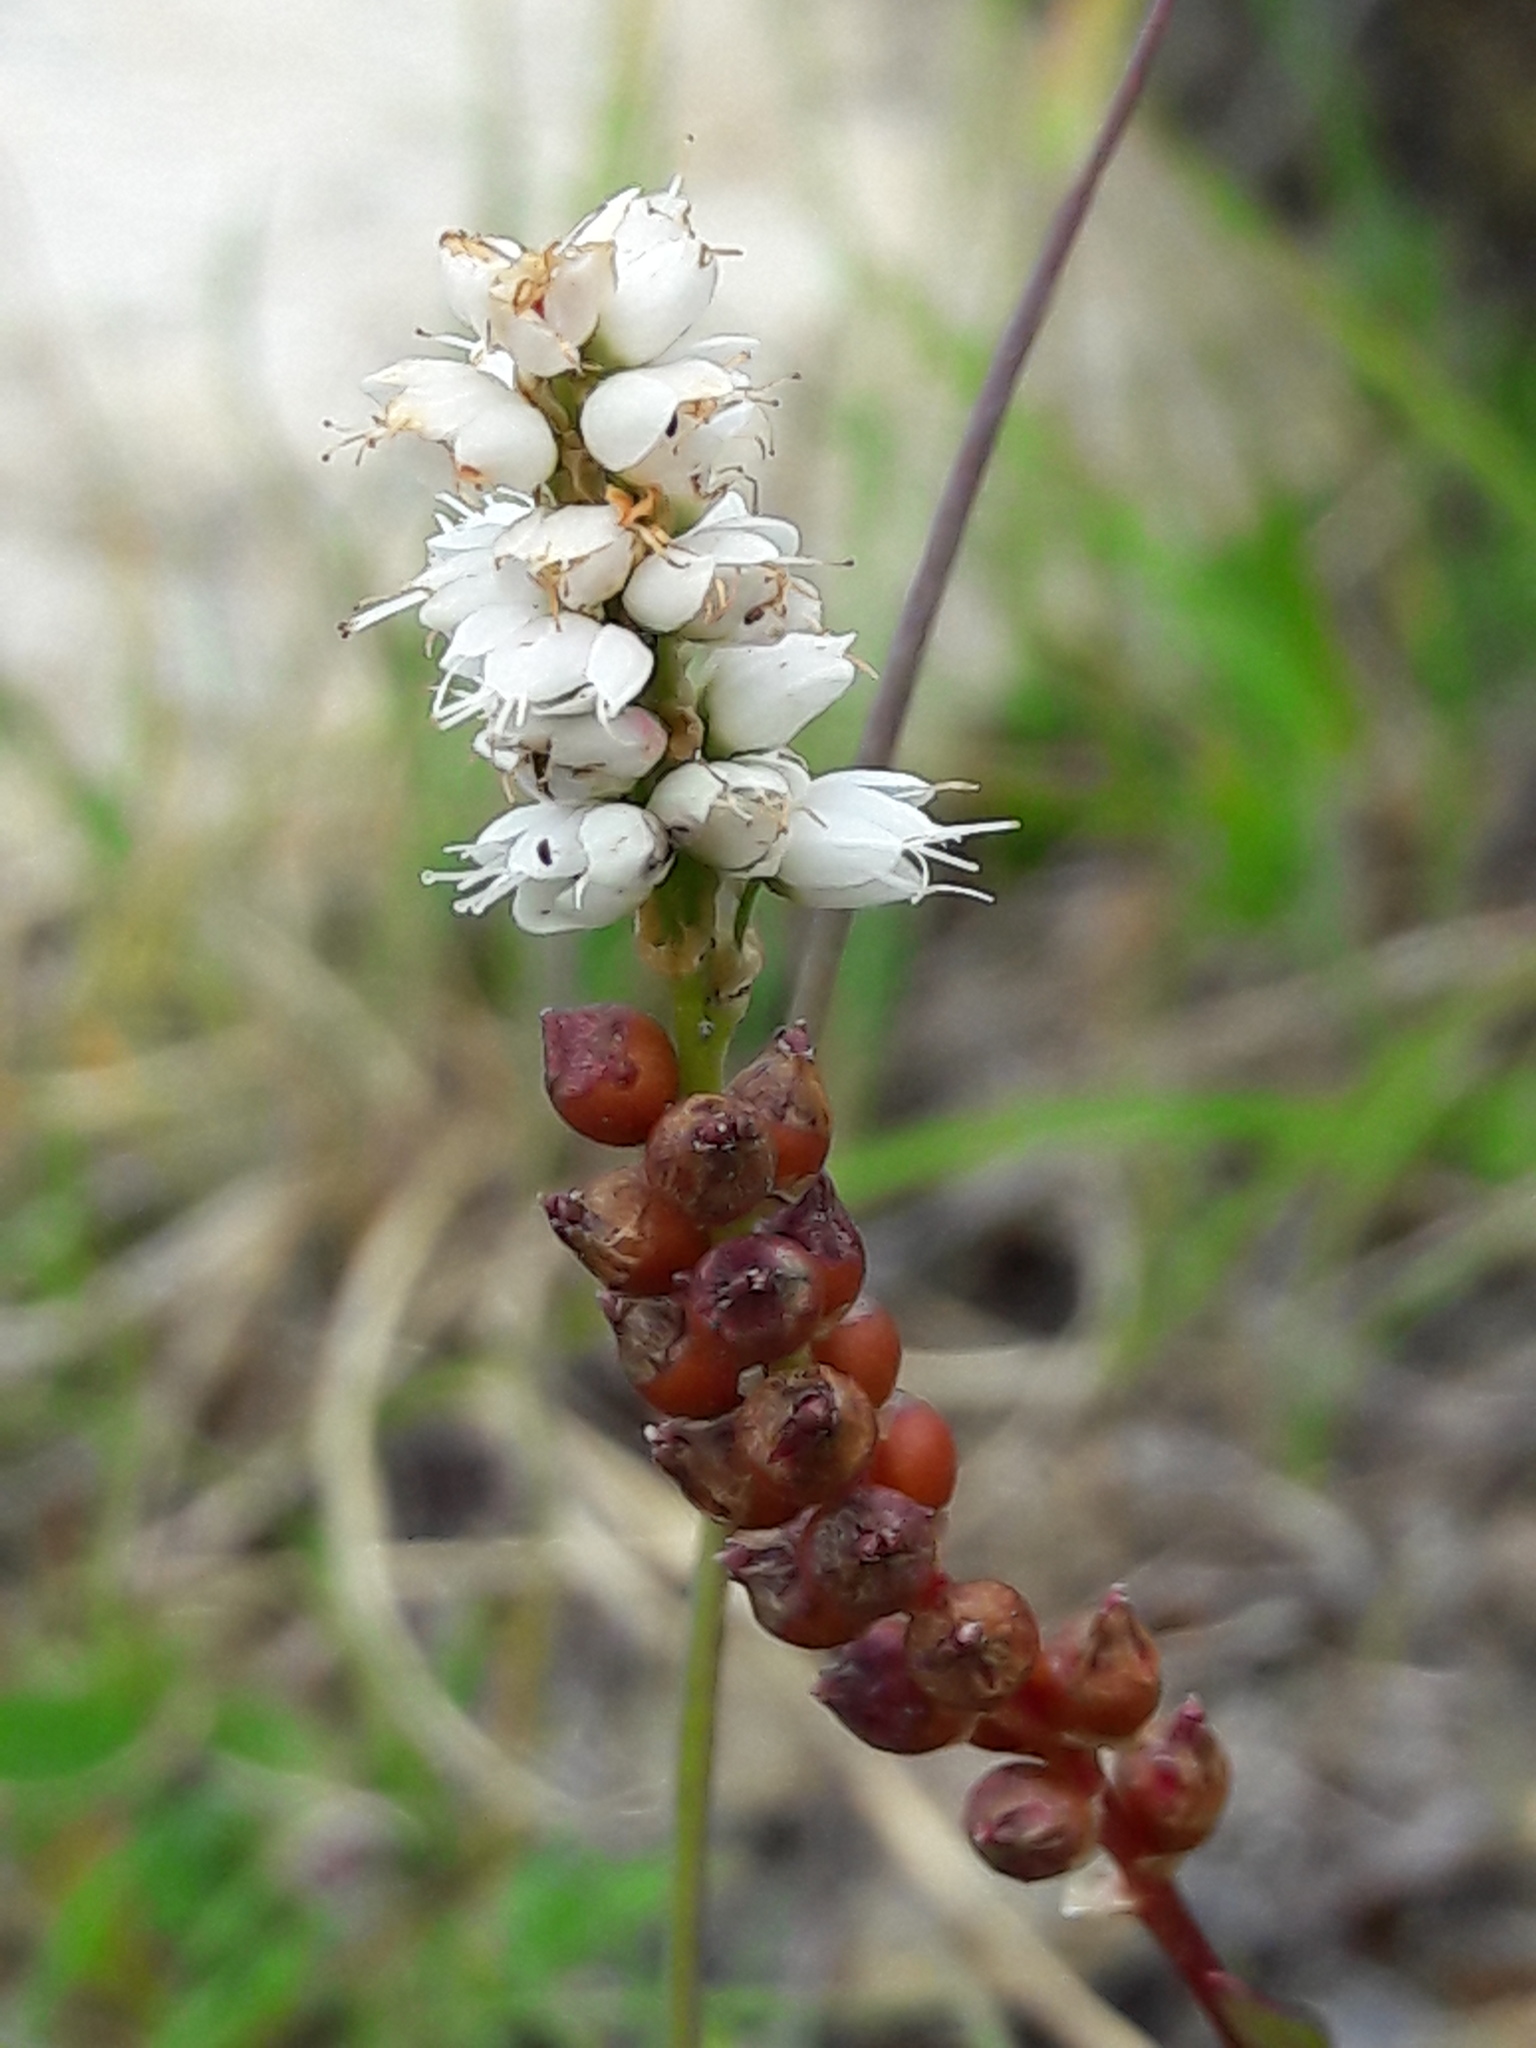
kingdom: Plantae
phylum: Tracheophyta
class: Magnoliopsida
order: Caryophyllales
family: Polygonaceae
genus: Bistorta
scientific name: Bistorta vivipara
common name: Alpine bistort
